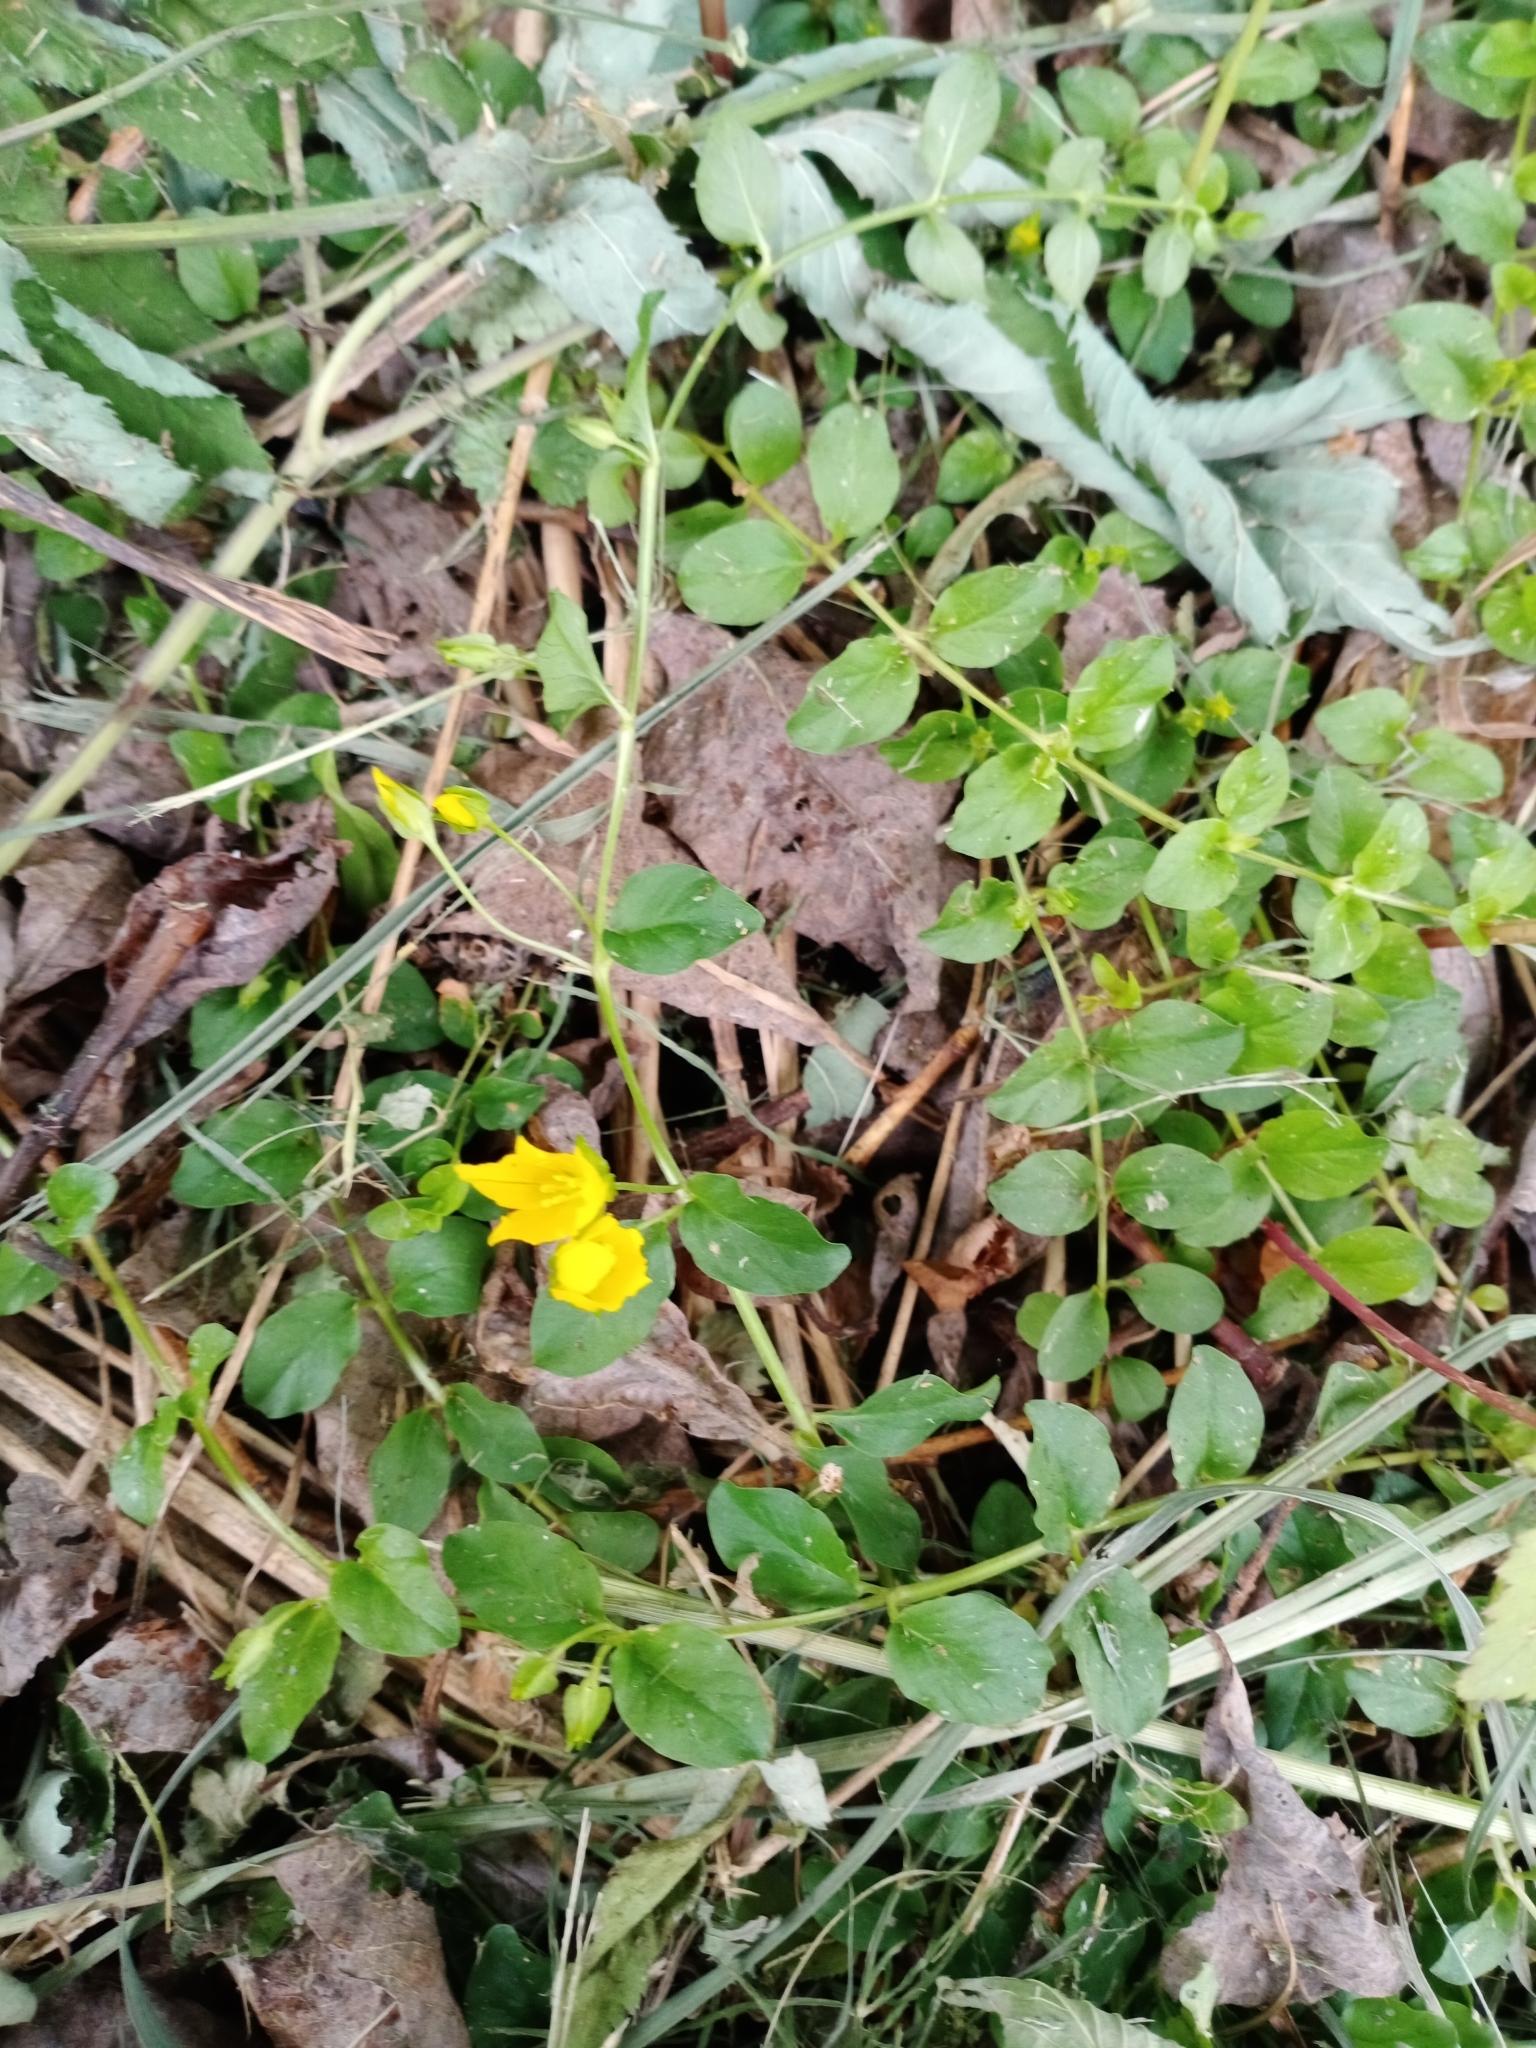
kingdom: Plantae
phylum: Tracheophyta
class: Magnoliopsida
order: Ericales
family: Primulaceae
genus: Lysimachia
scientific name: Lysimachia nummularia
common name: Moneywort
